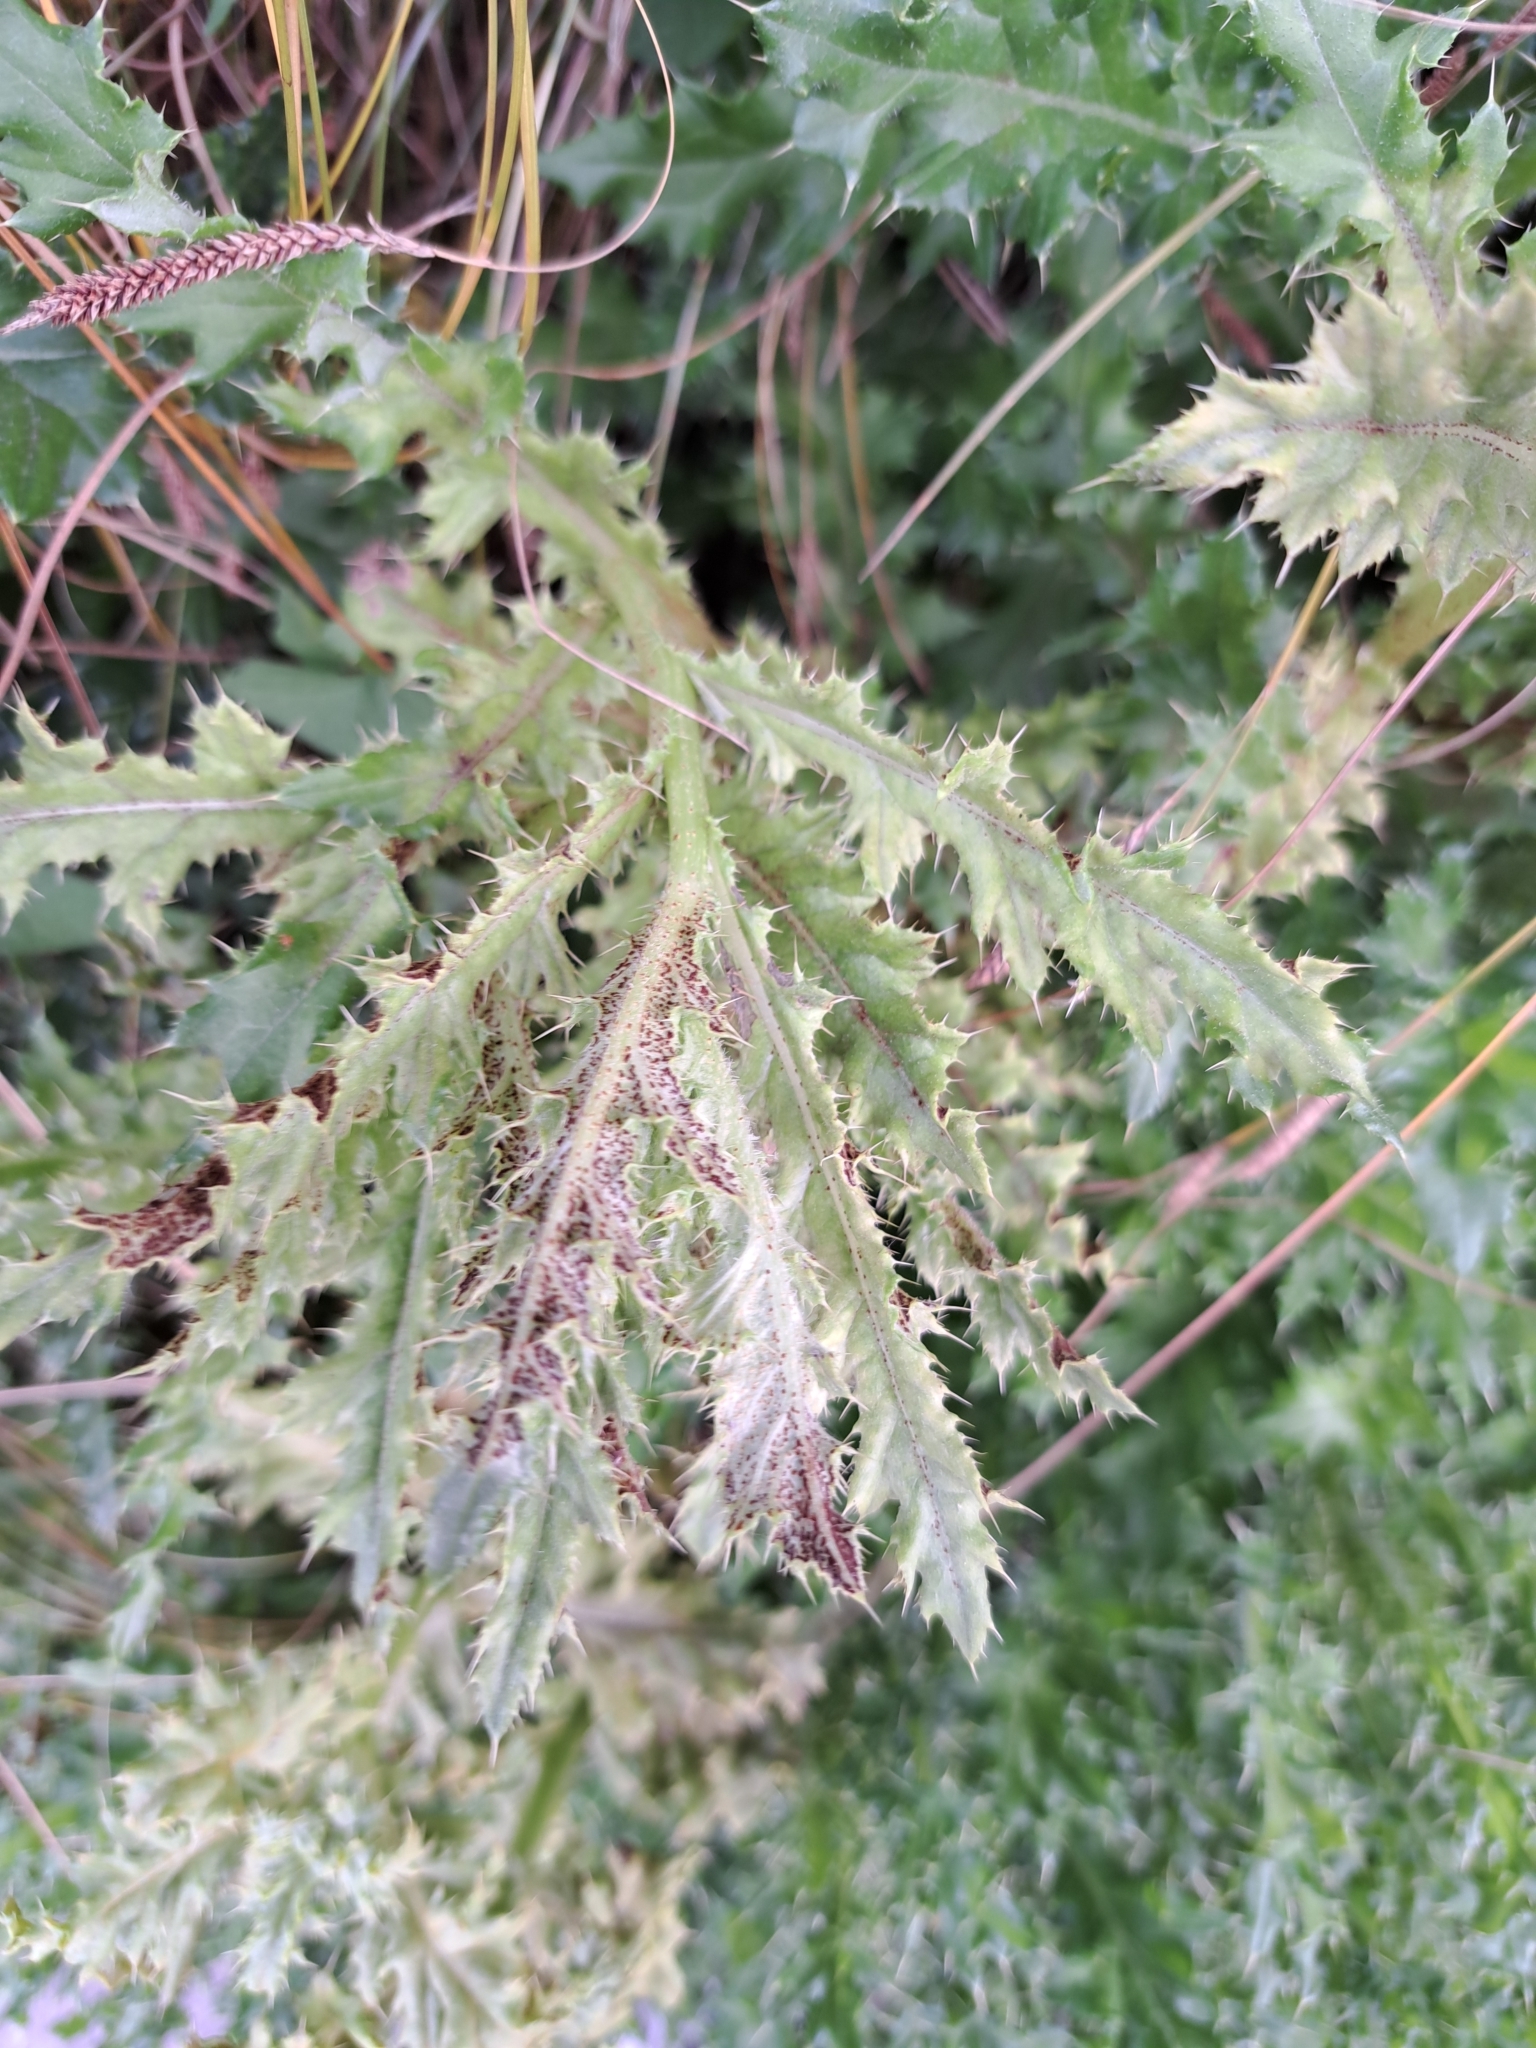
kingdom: Fungi
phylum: Basidiomycota
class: Pucciniomycetes
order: Pucciniales
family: Pucciniaceae
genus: Puccinia
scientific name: Puccinia suaveolens
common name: Thistle rust
